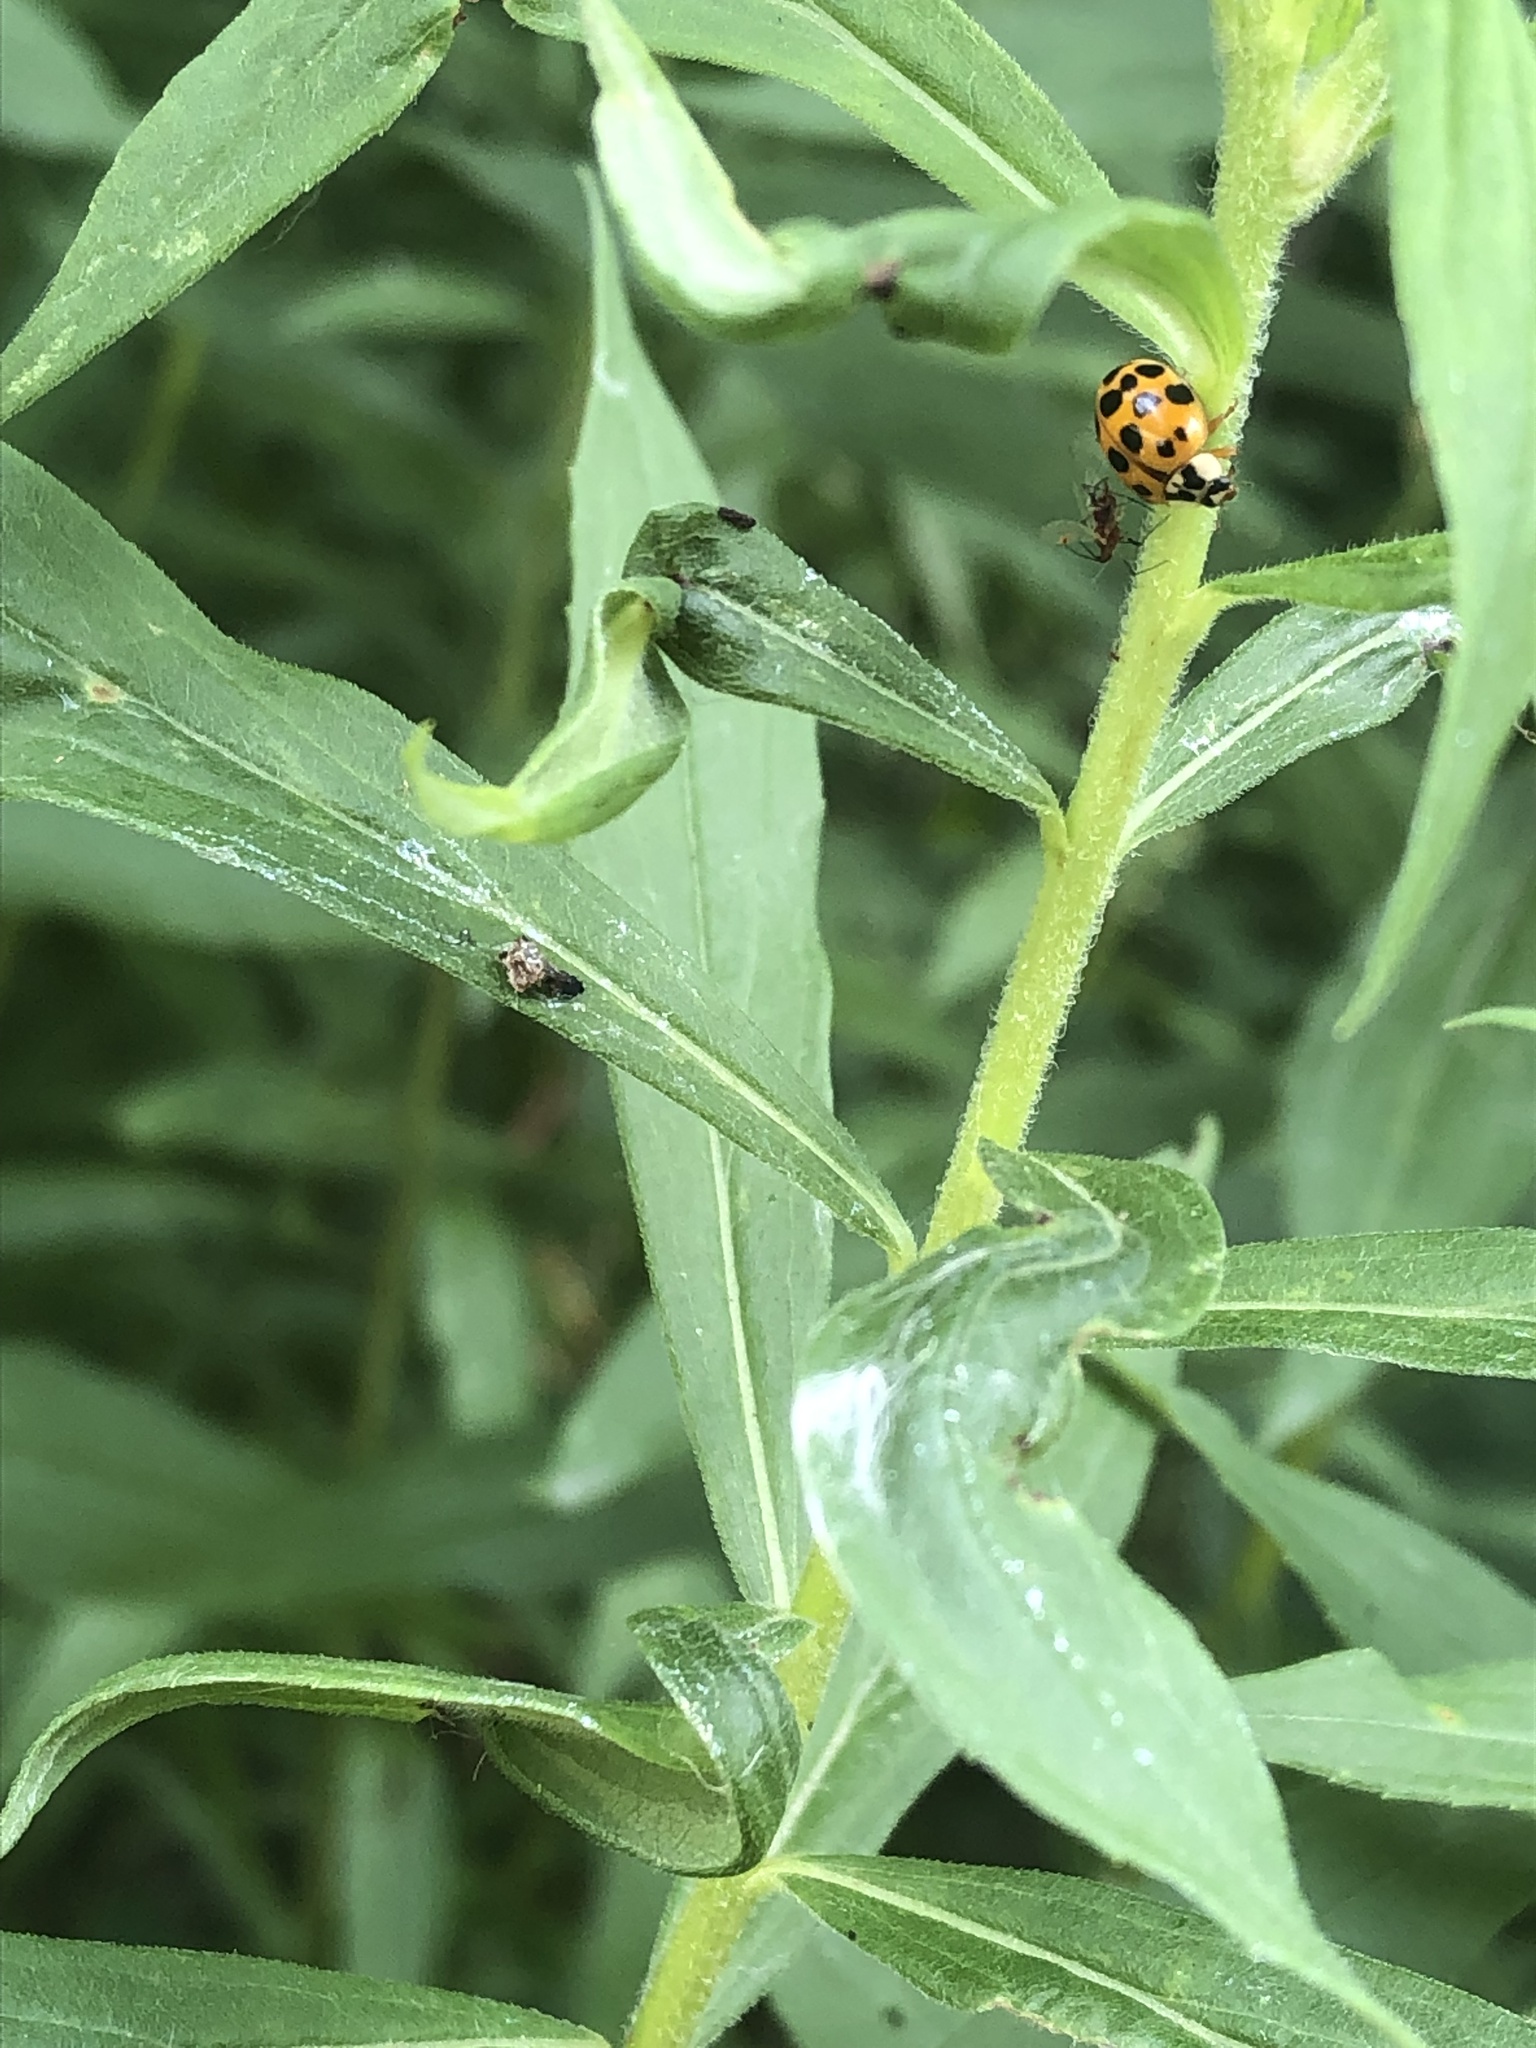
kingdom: Animalia
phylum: Arthropoda
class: Insecta
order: Coleoptera
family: Coccinellidae
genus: Harmonia
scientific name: Harmonia axyridis
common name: Harlequin ladybird
